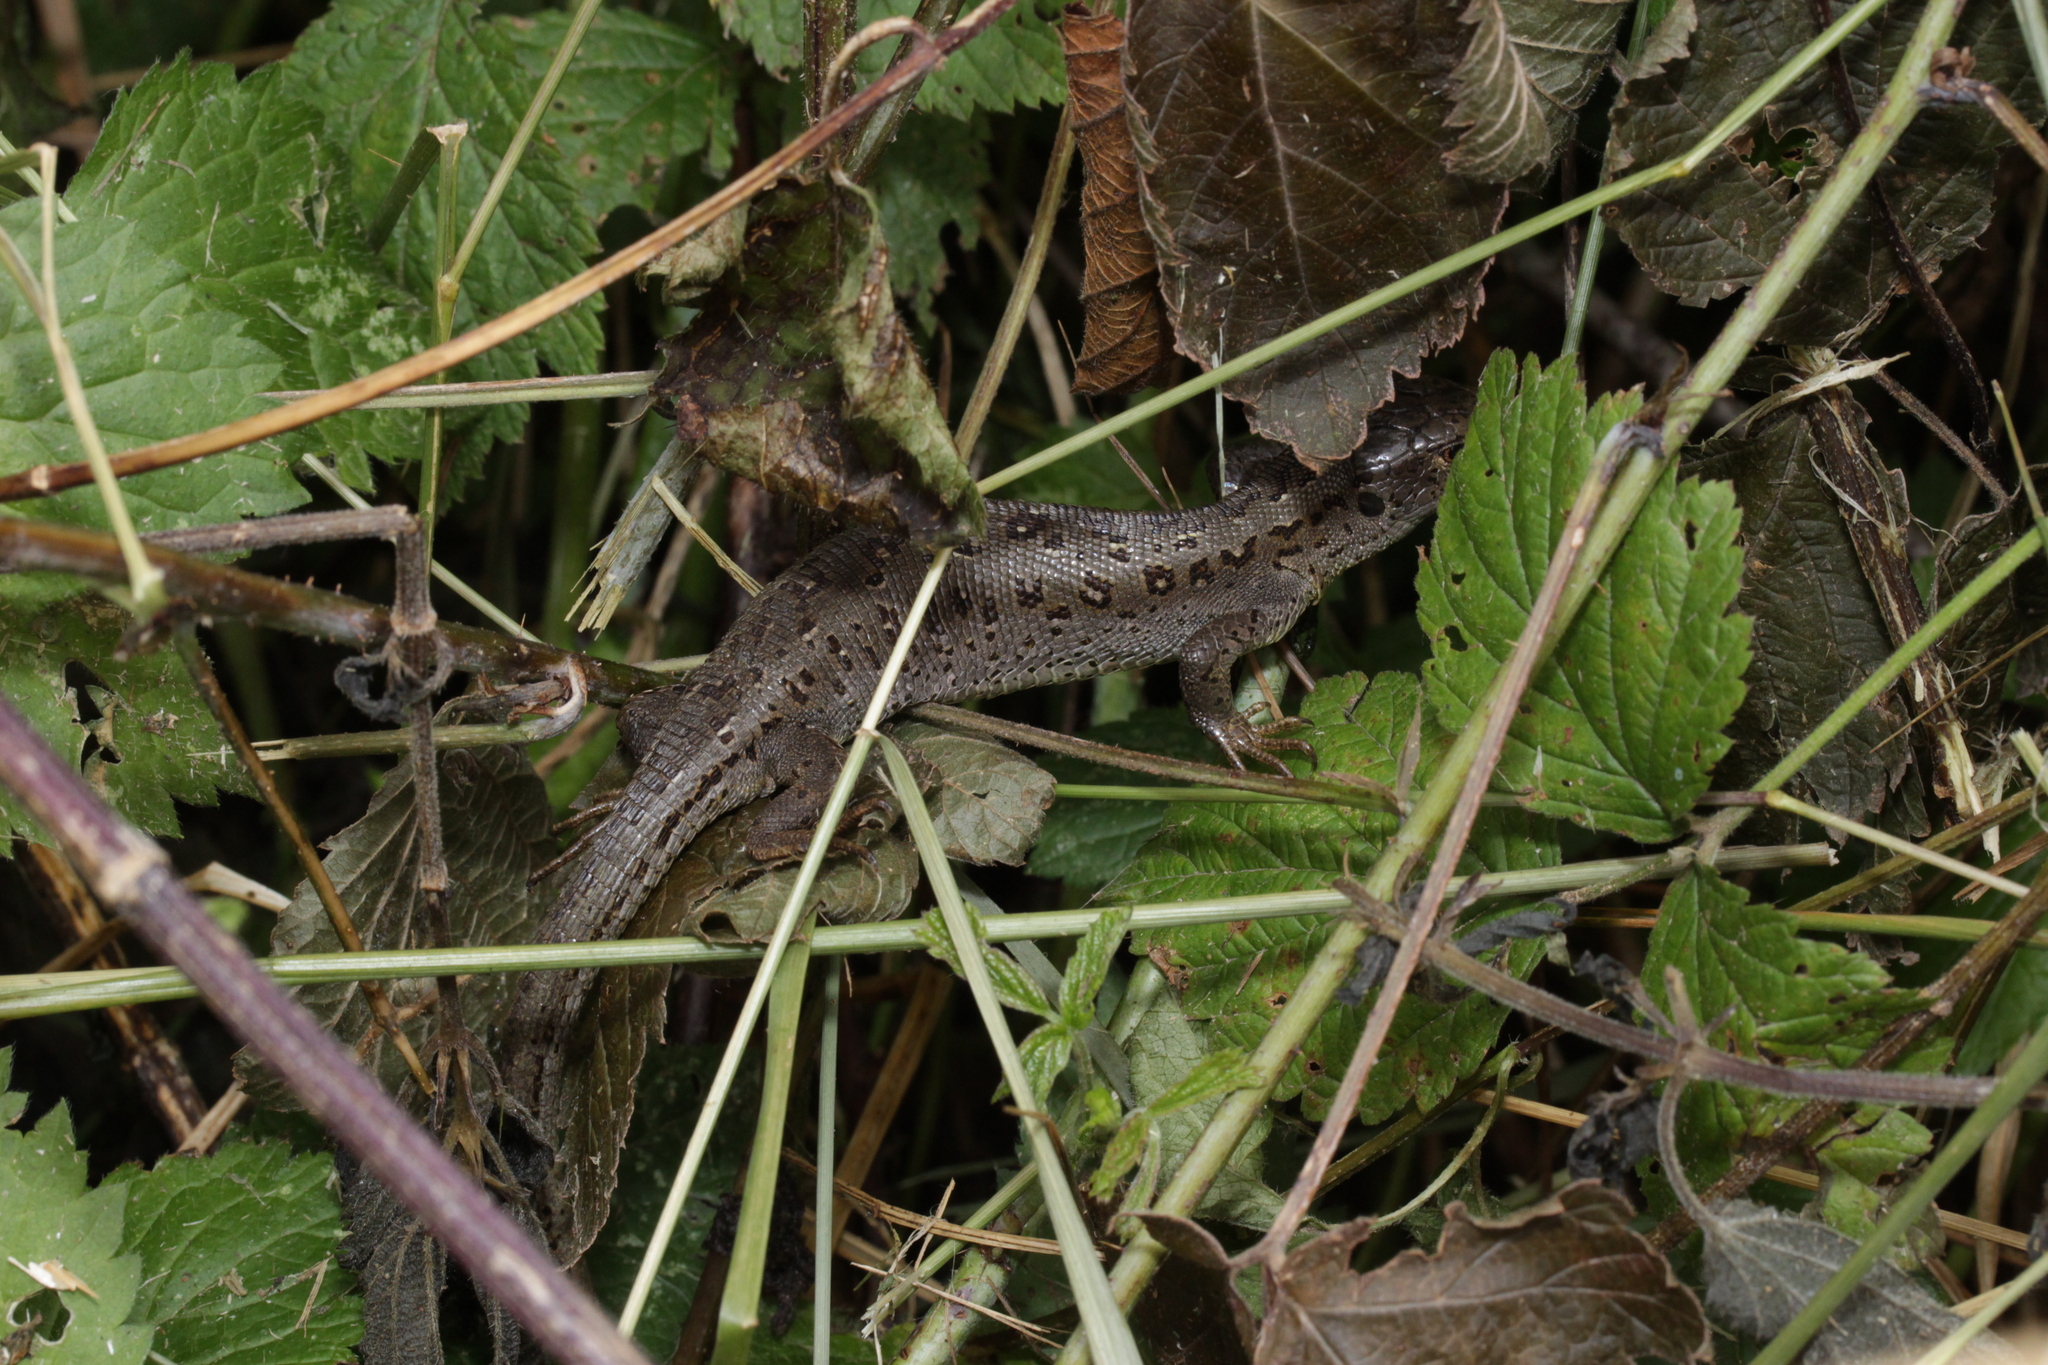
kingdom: Animalia
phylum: Chordata
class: Squamata
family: Lacertidae
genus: Lacerta
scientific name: Lacerta agilis
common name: Sand lizard
